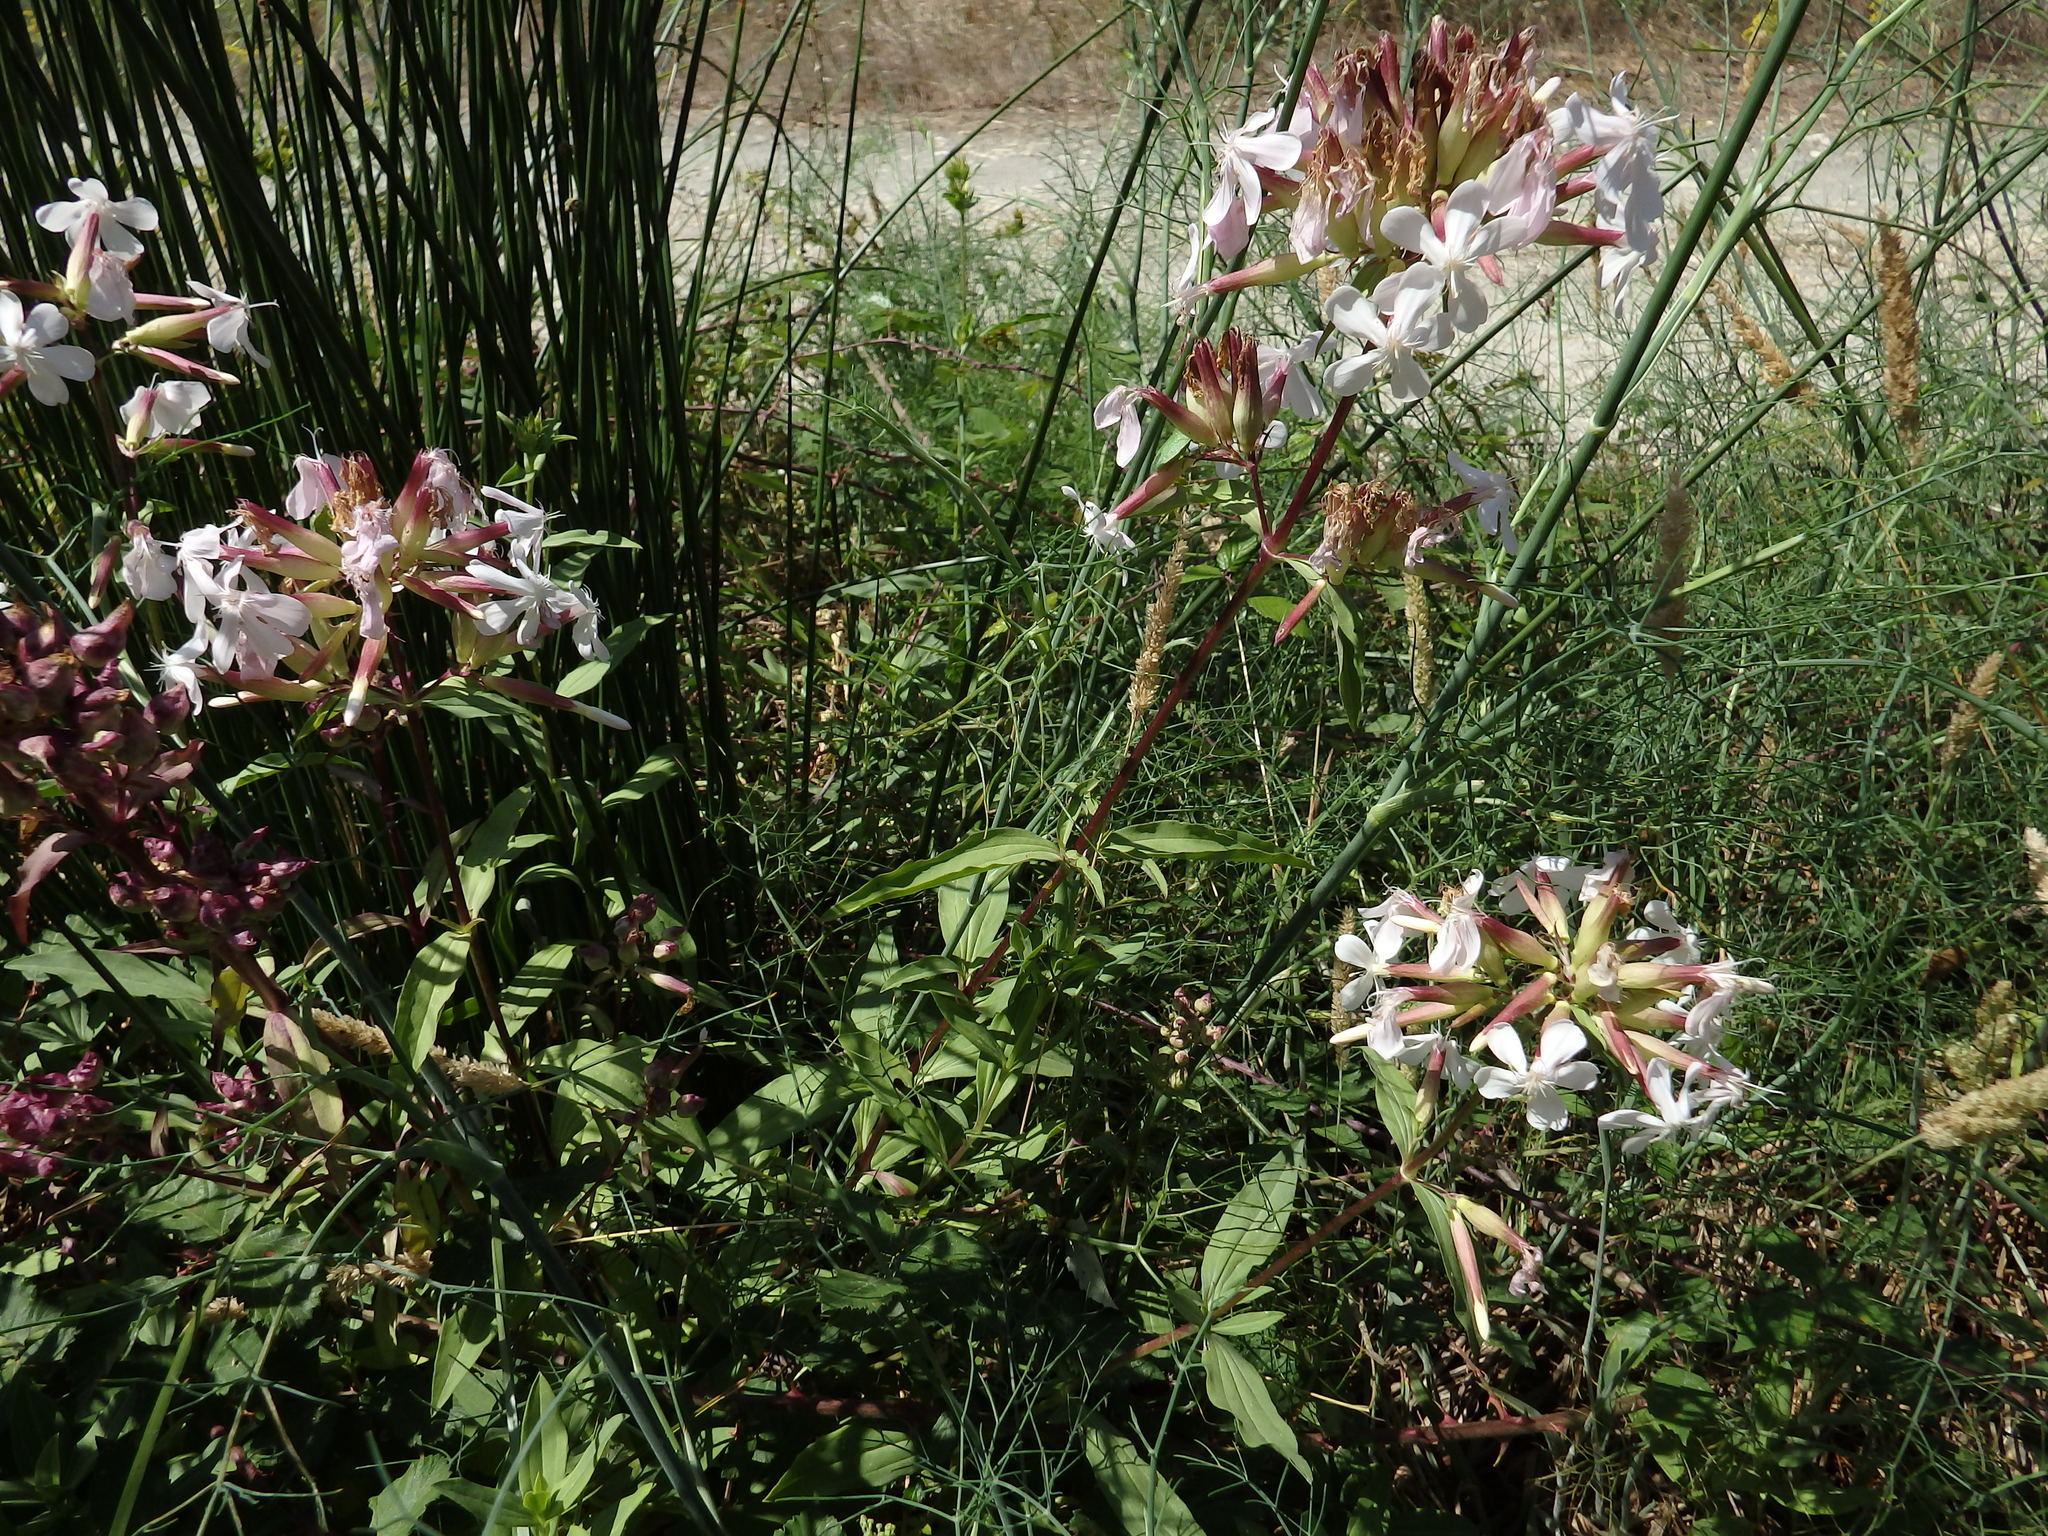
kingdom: Plantae
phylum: Tracheophyta
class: Magnoliopsida
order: Caryophyllales
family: Caryophyllaceae
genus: Saponaria
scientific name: Saponaria officinalis
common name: Soapwort
